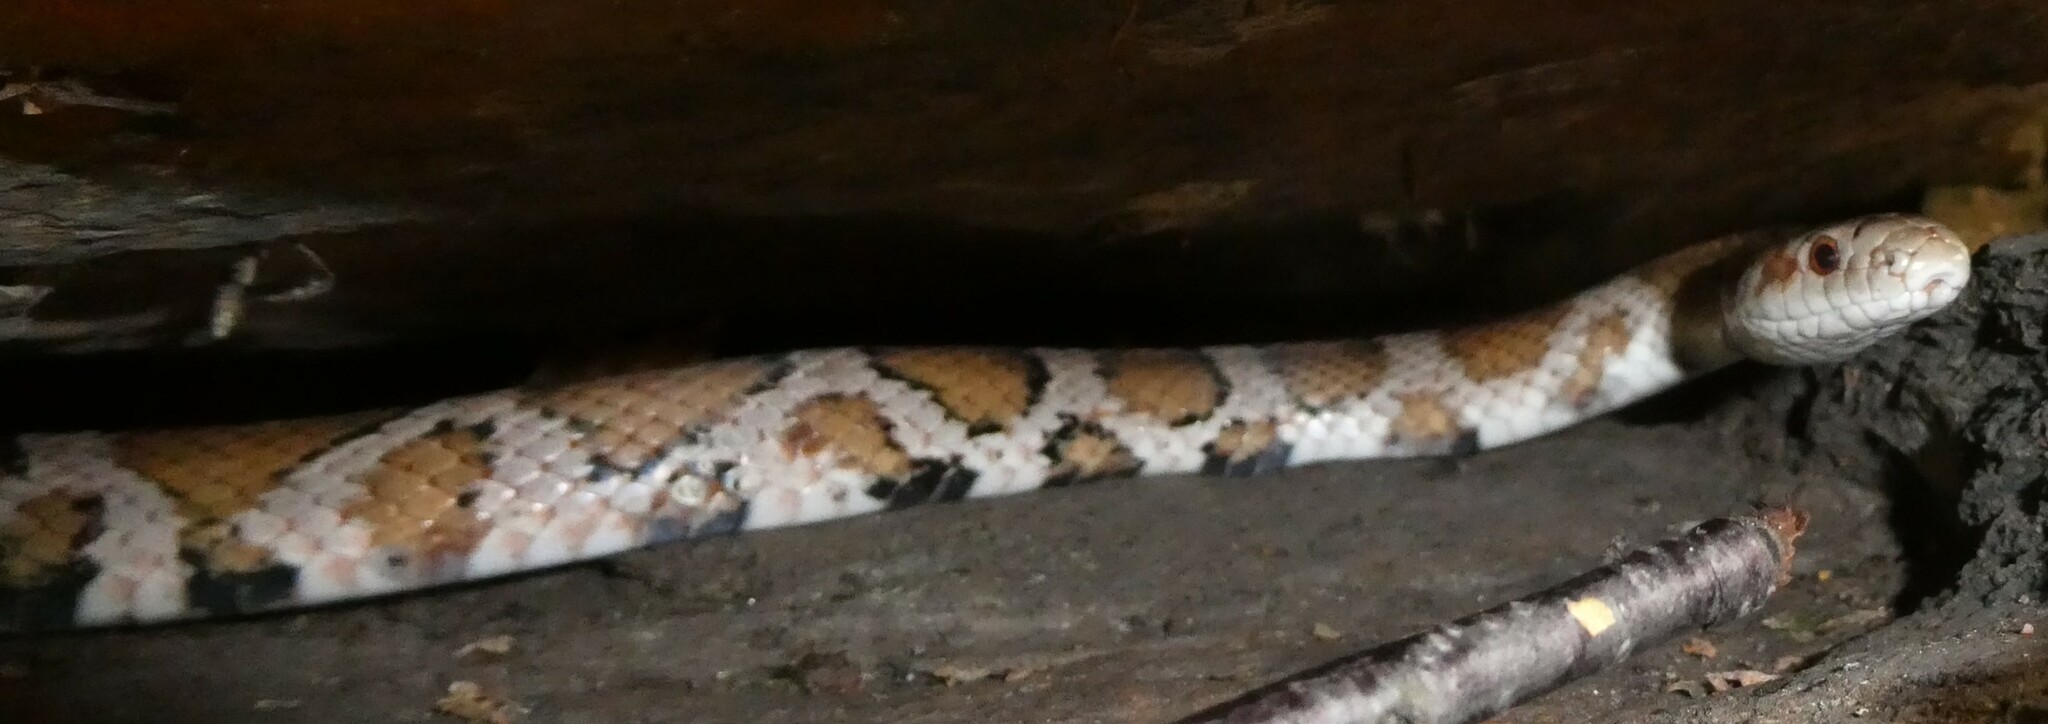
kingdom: Animalia
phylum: Chordata
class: Squamata
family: Colubridae
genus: Lampropeltis
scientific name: Lampropeltis triangulum
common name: Eastern milksnake
